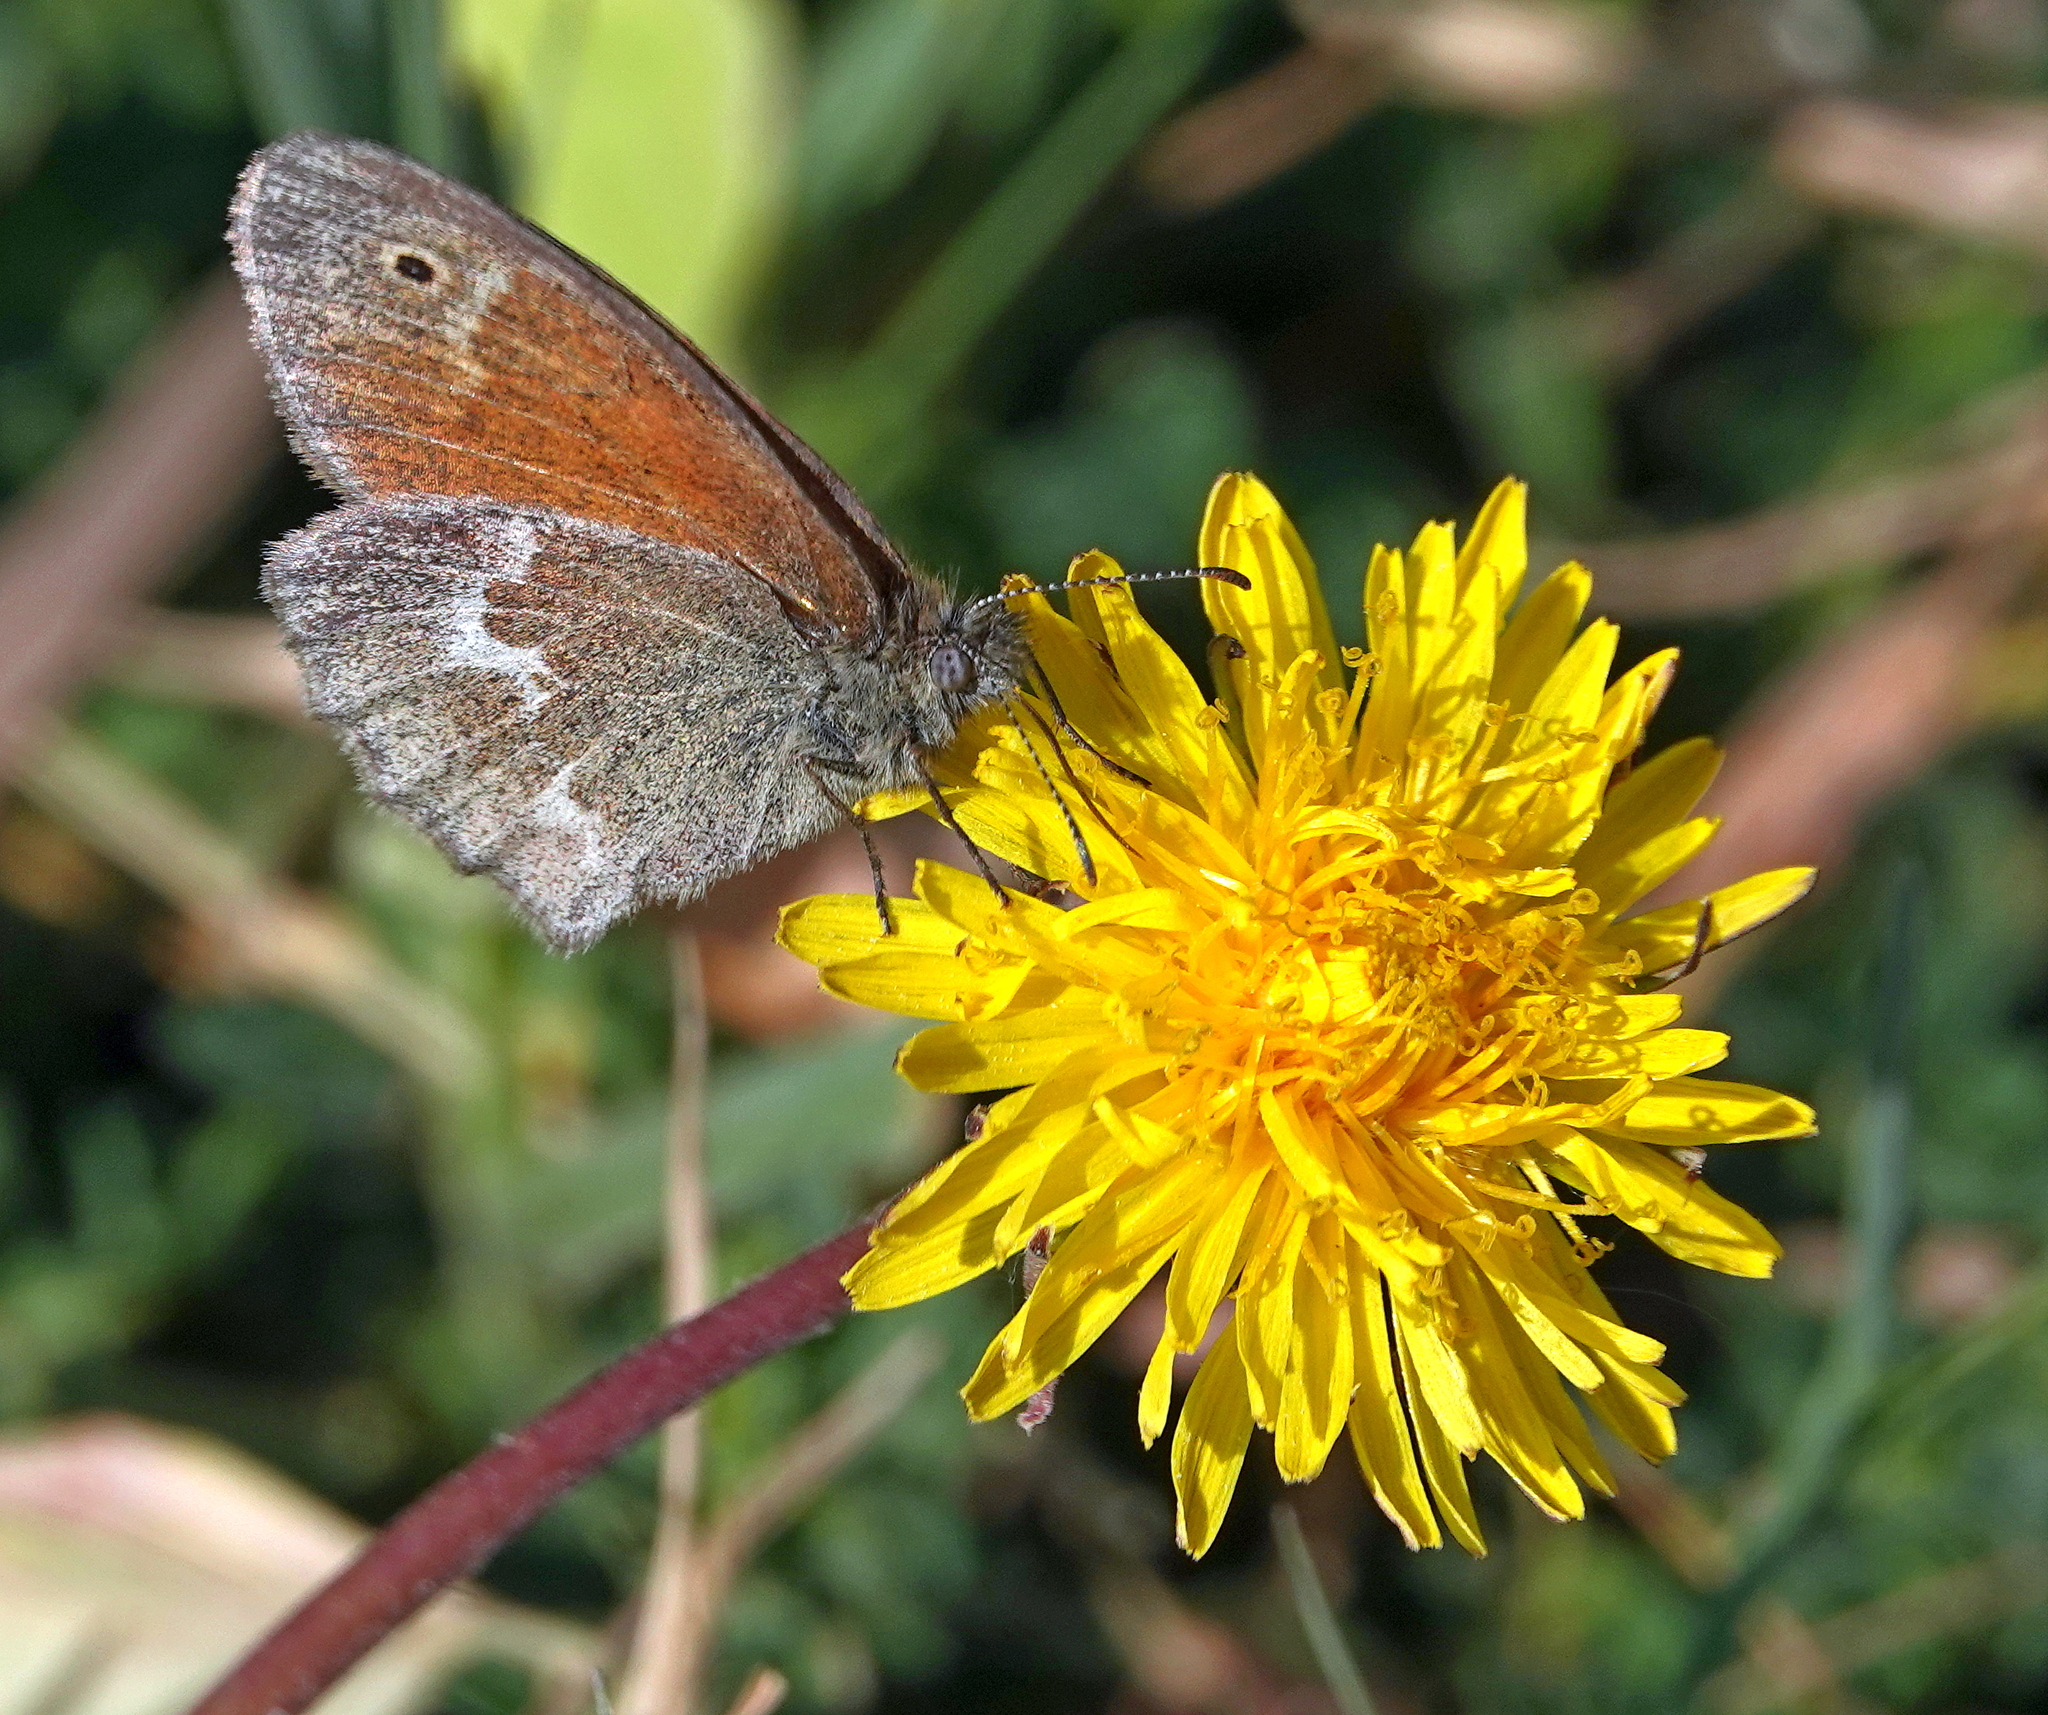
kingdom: Animalia
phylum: Arthropoda
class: Insecta
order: Lepidoptera
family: Nymphalidae
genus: Coenonympha
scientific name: Coenonympha california
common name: Common ringlet
